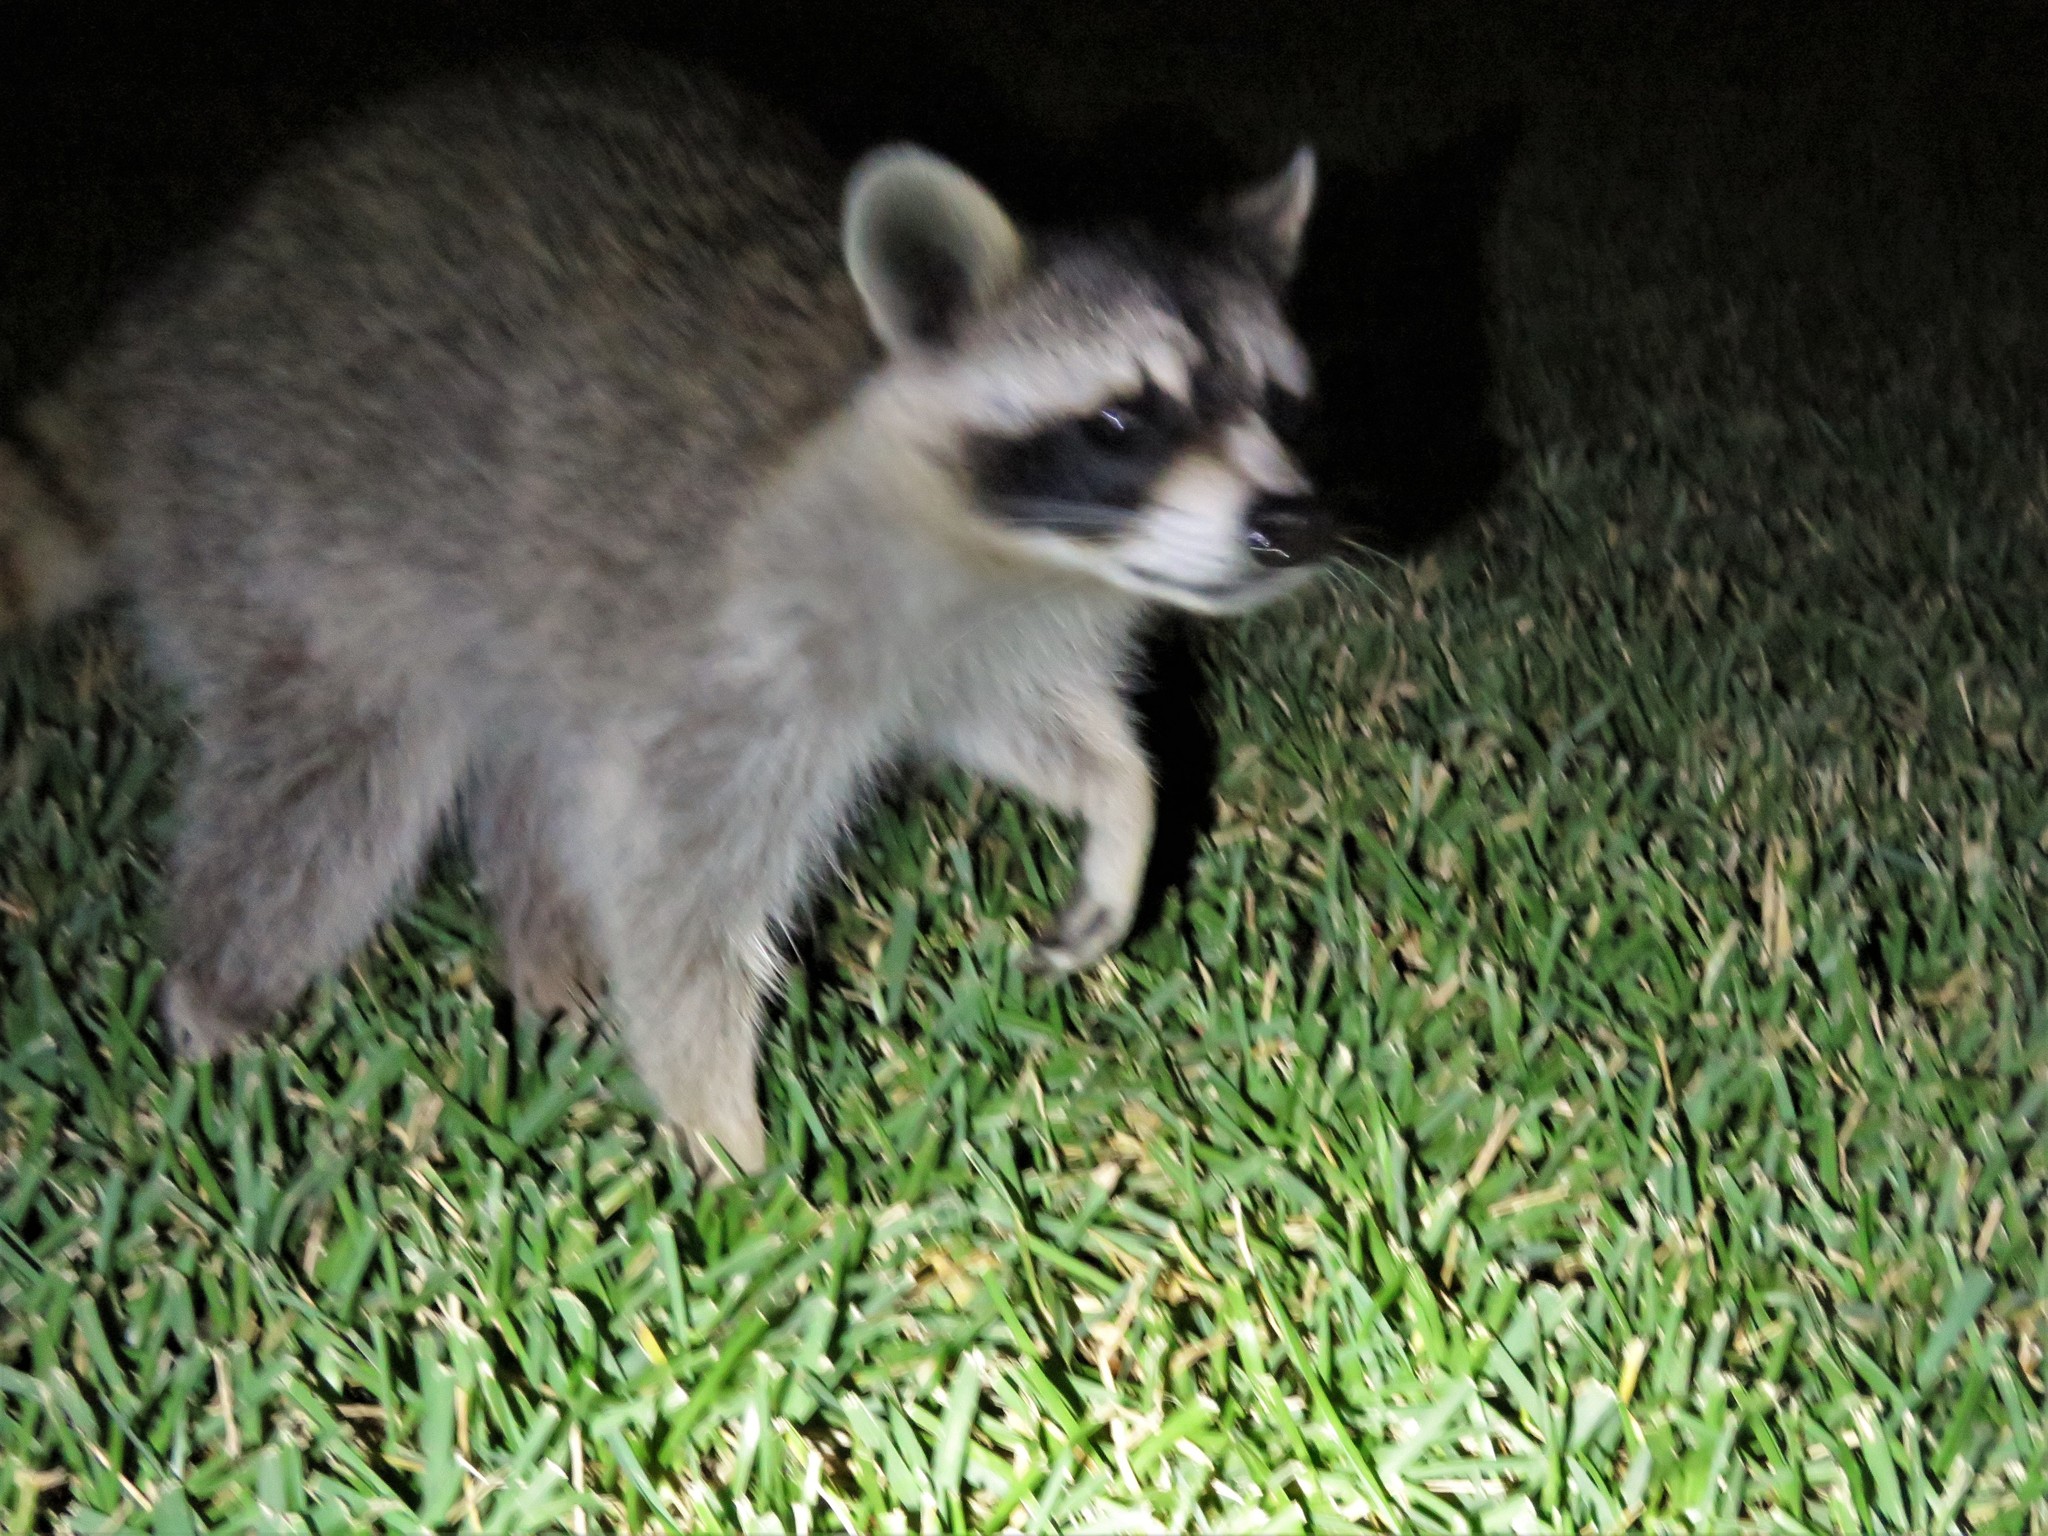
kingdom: Animalia
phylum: Chordata
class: Mammalia
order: Carnivora
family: Procyonidae
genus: Procyon
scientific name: Procyon lotor
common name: Raccoon
